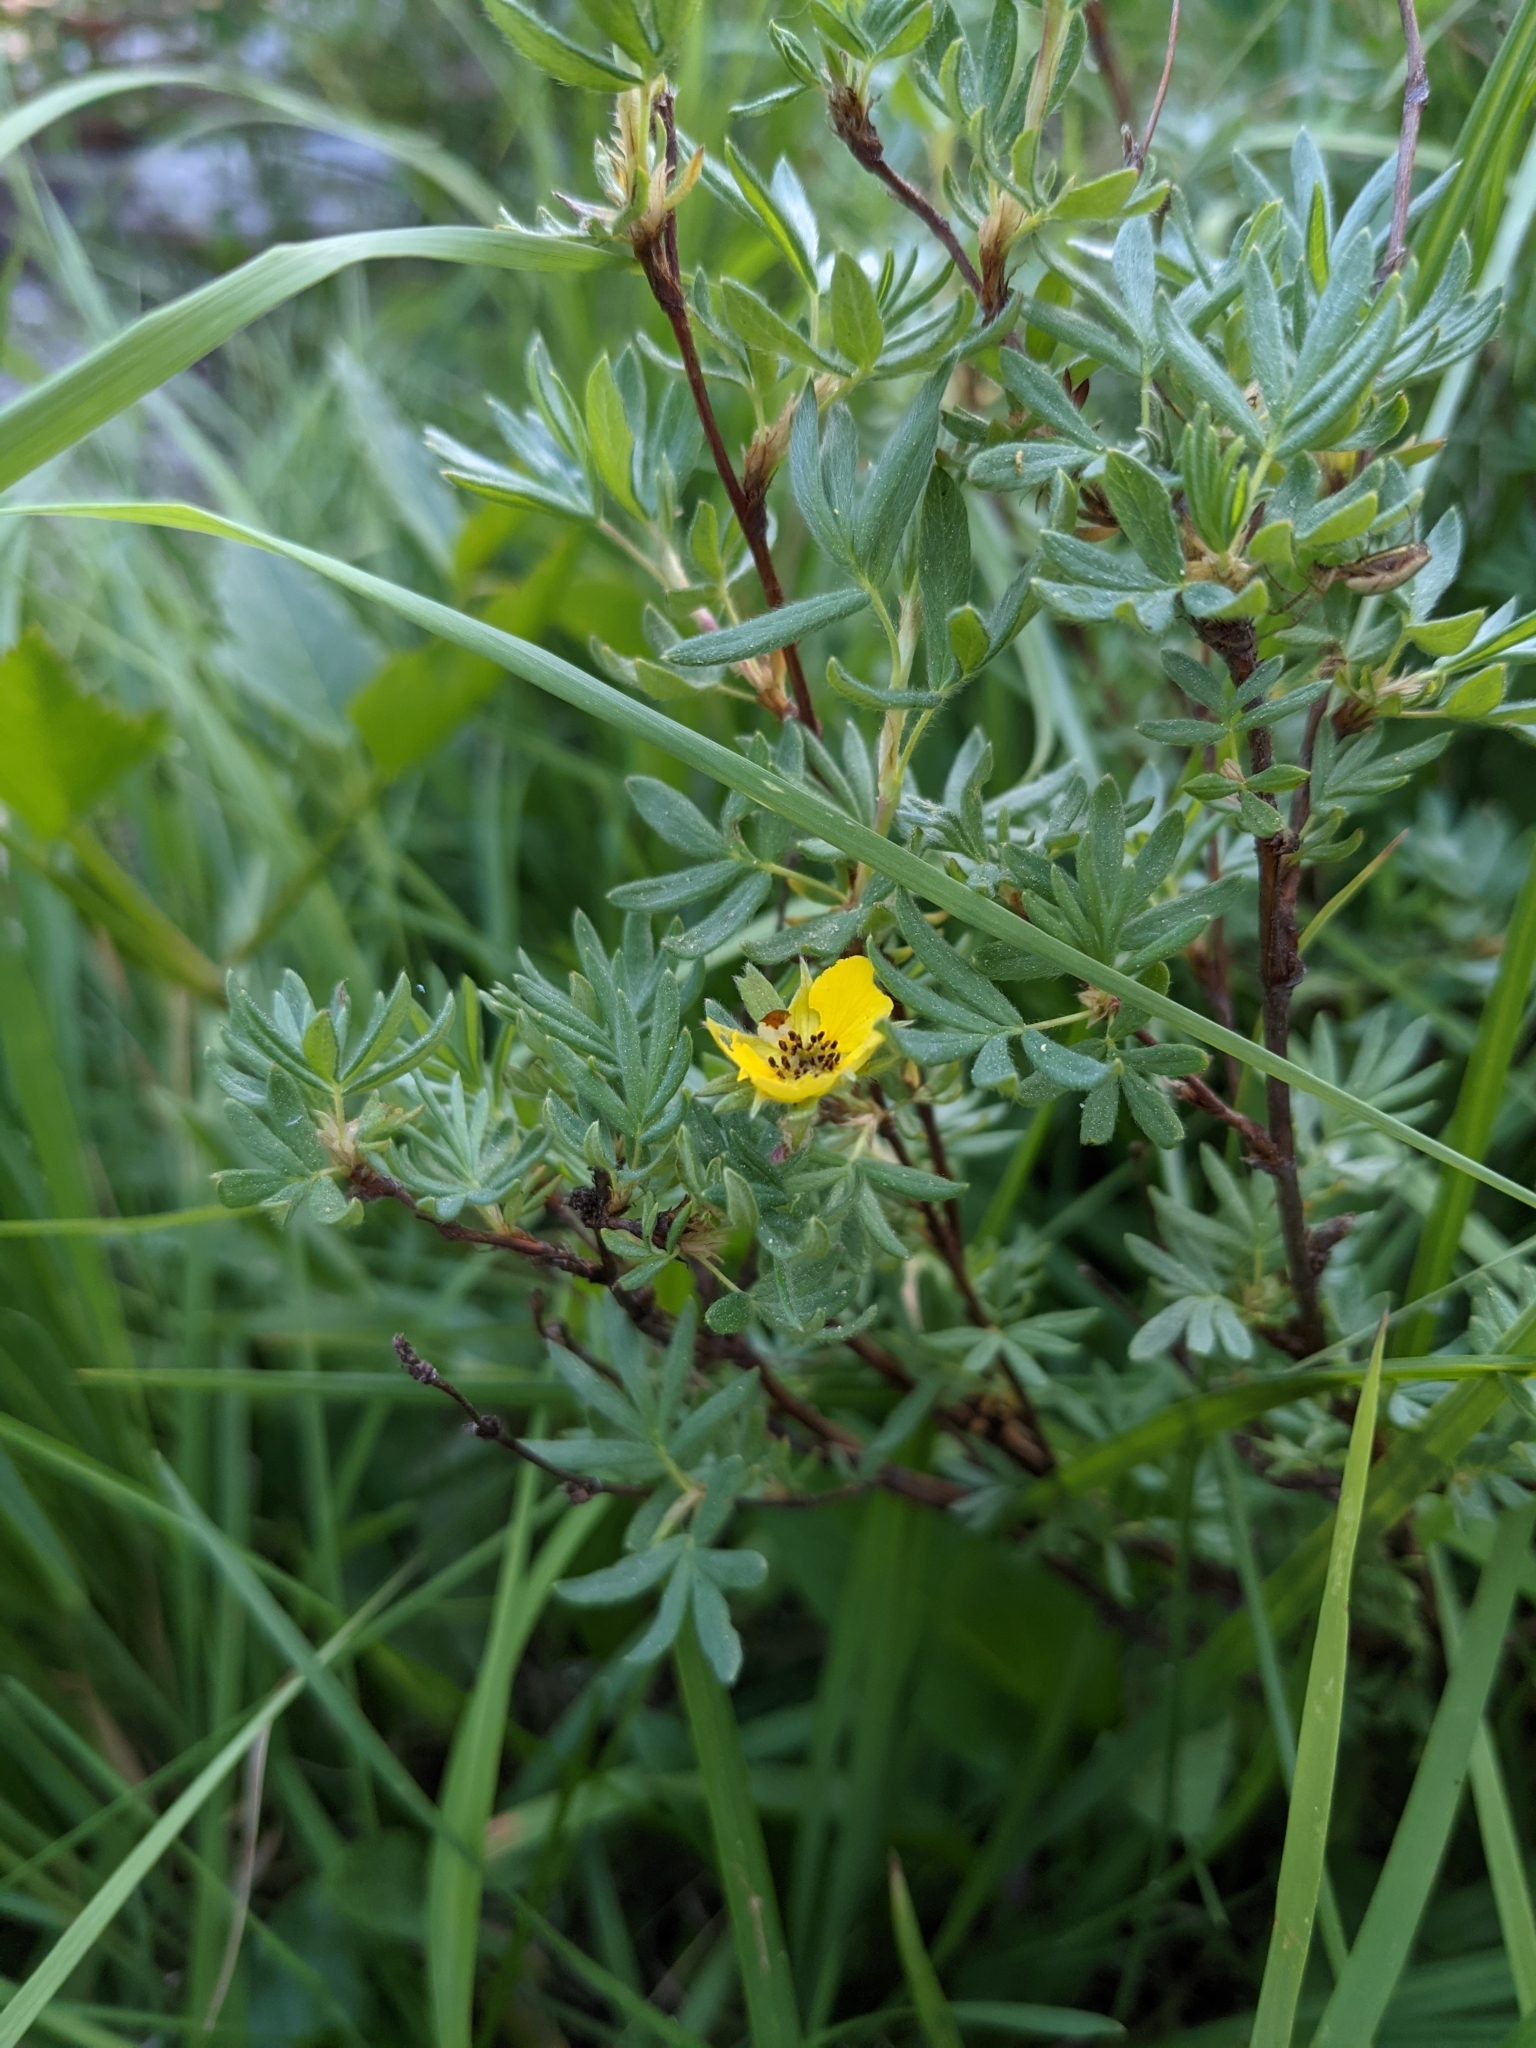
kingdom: Plantae
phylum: Tracheophyta
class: Magnoliopsida
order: Rosales
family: Rosaceae
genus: Dasiphora
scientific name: Dasiphora fruticosa
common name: Shrubby cinquefoil
